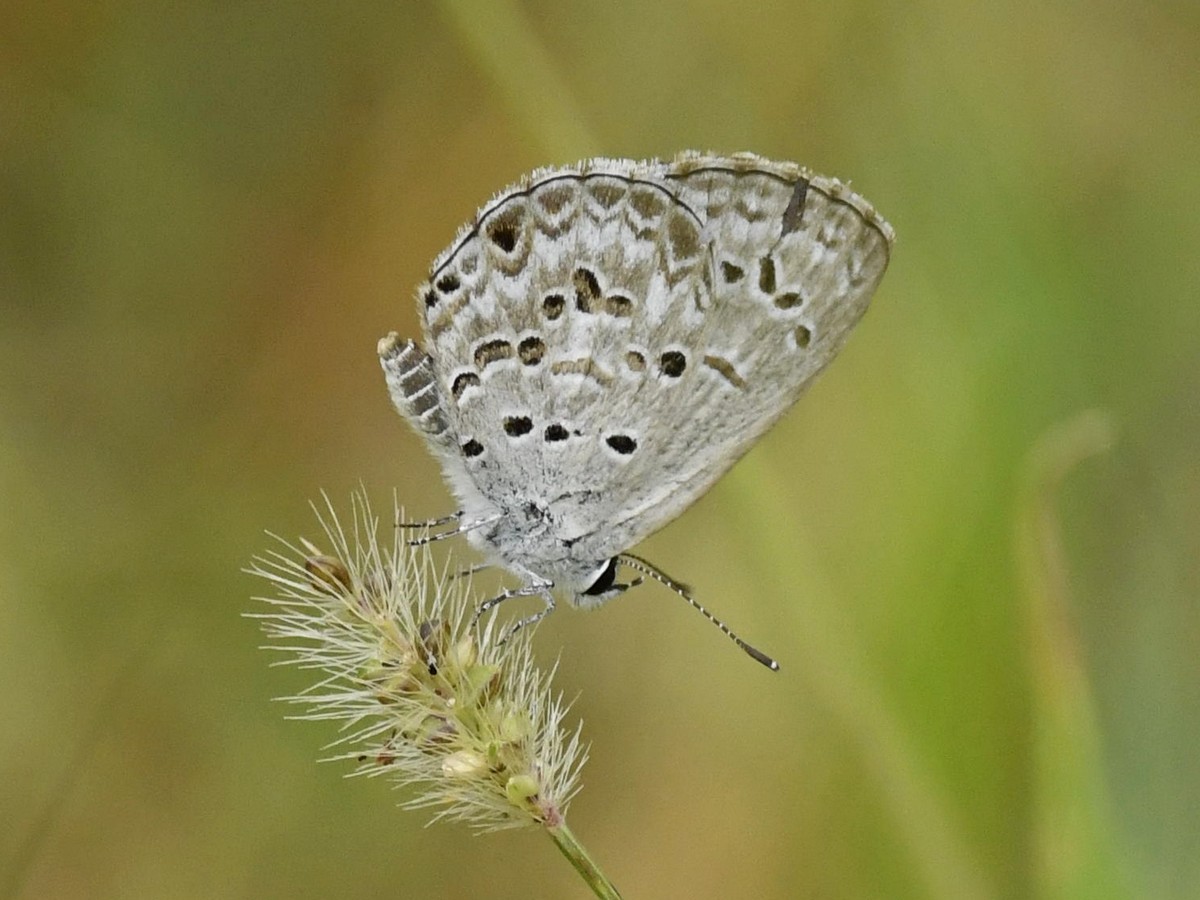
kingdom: Animalia
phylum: Arthropoda
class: Insecta
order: Lepidoptera
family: Lycaenidae
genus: Chilades
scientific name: Chilades laius
